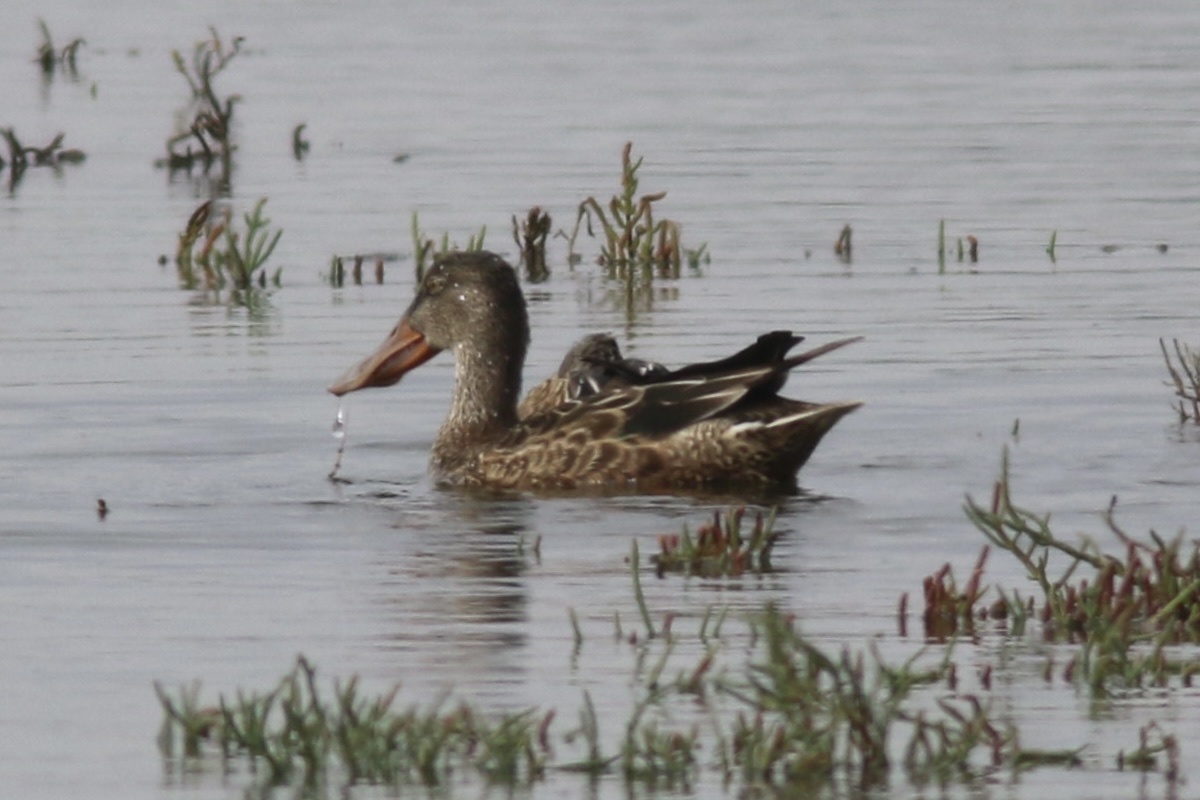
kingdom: Animalia
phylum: Chordata
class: Aves
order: Anseriformes
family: Anatidae
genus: Spatula
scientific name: Spatula clypeata
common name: Northern shoveler
